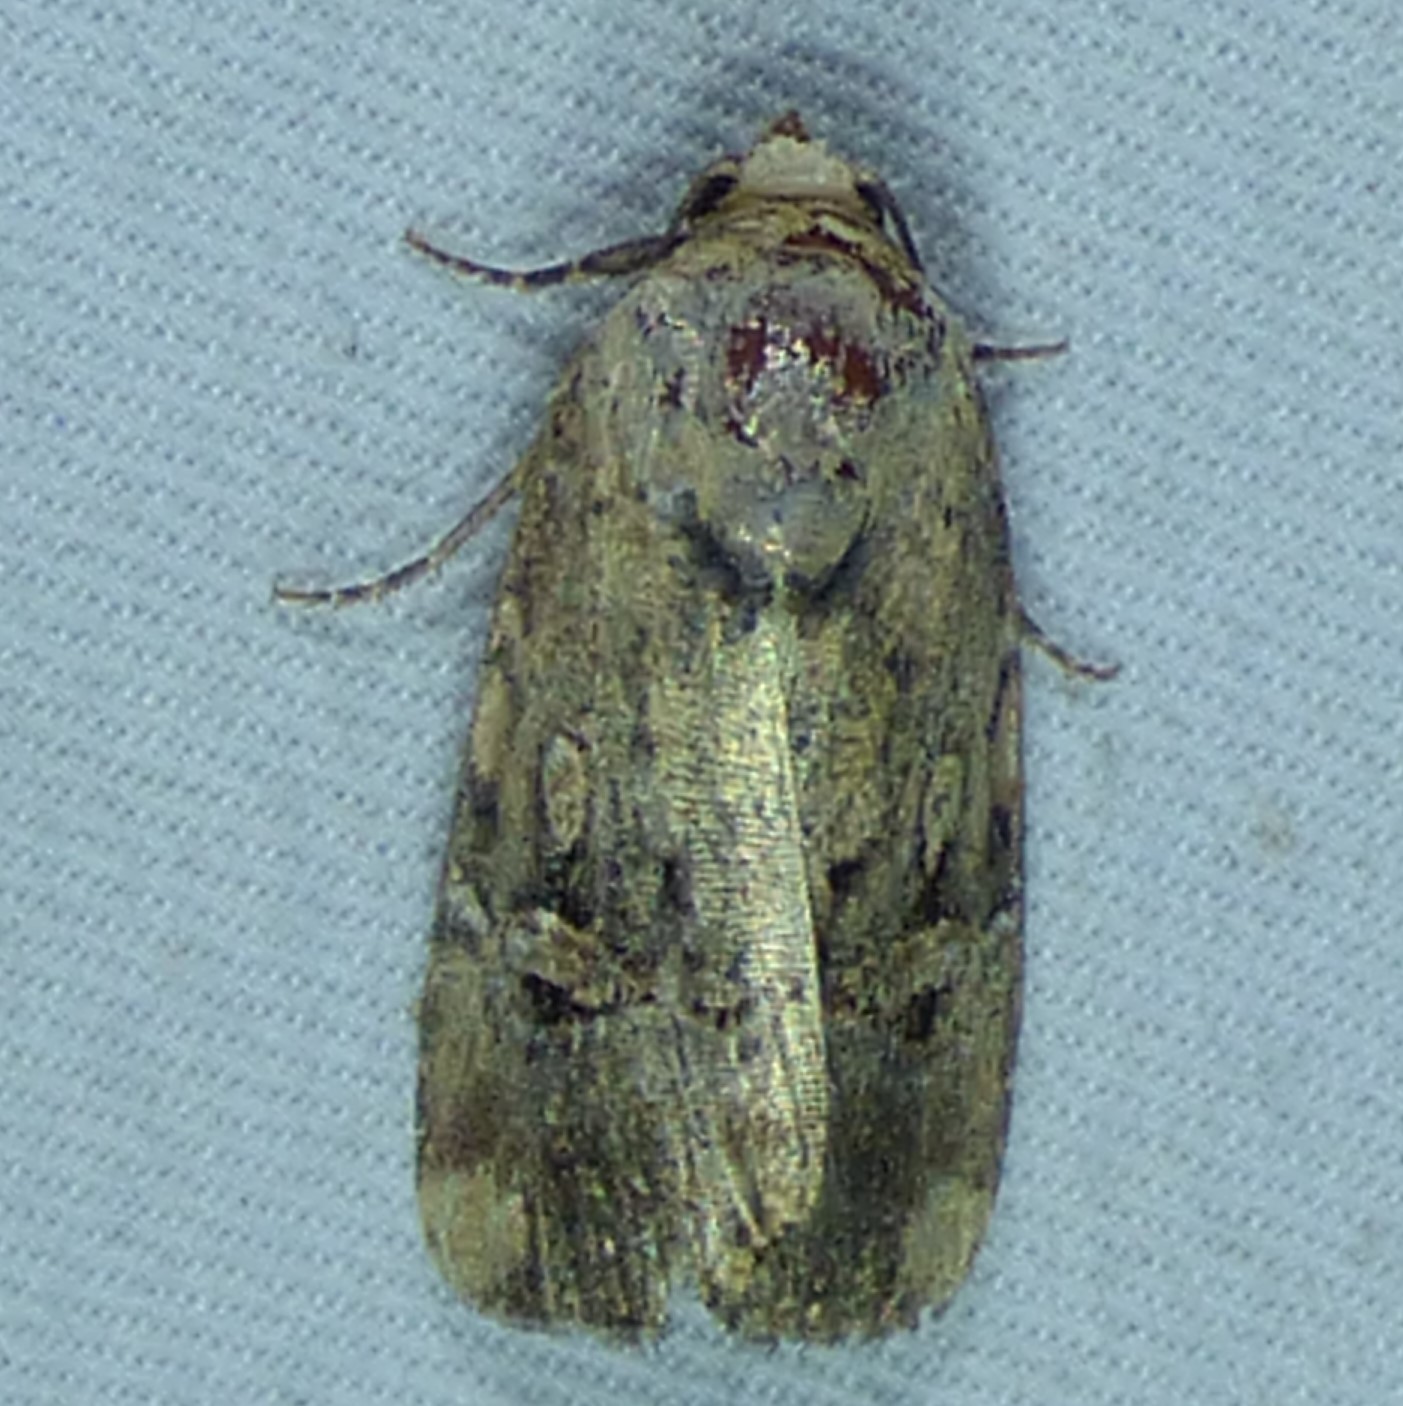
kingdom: Animalia
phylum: Arthropoda
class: Insecta
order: Lepidoptera
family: Noctuidae
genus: Elaphria
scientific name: Elaphria chalcedonia
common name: Chalcedony midget
